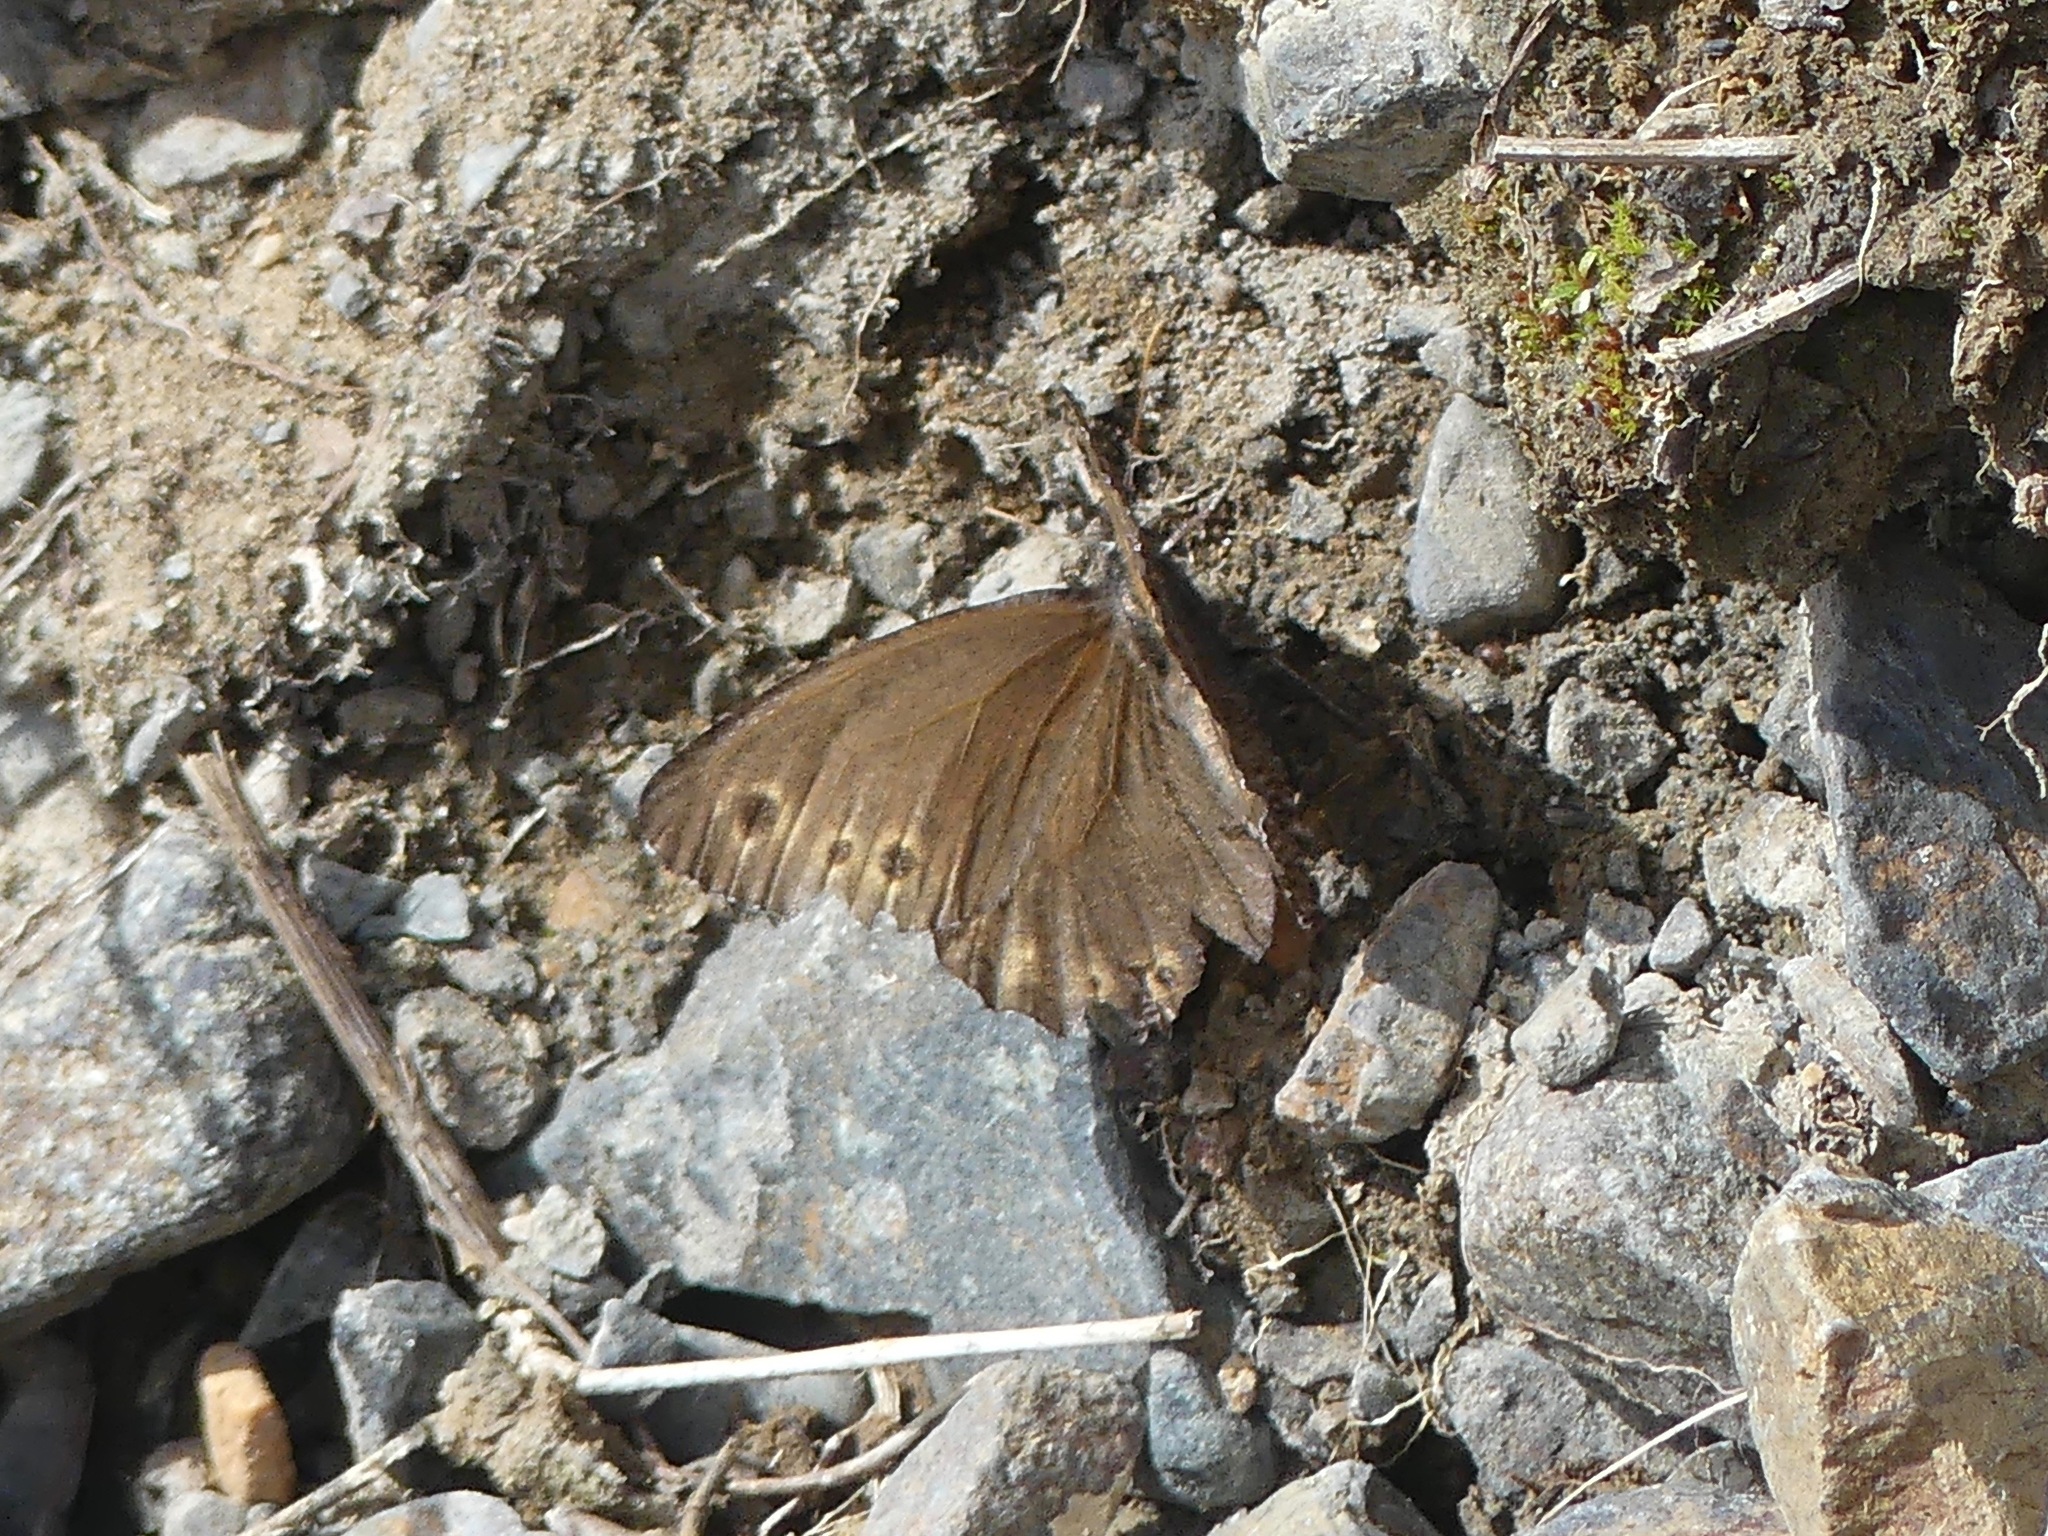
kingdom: Animalia
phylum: Arthropoda
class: Insecta
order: Lepidoptera
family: Nymphalidae
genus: Oeneis
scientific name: Oeneis jutta
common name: Baltic grayling
